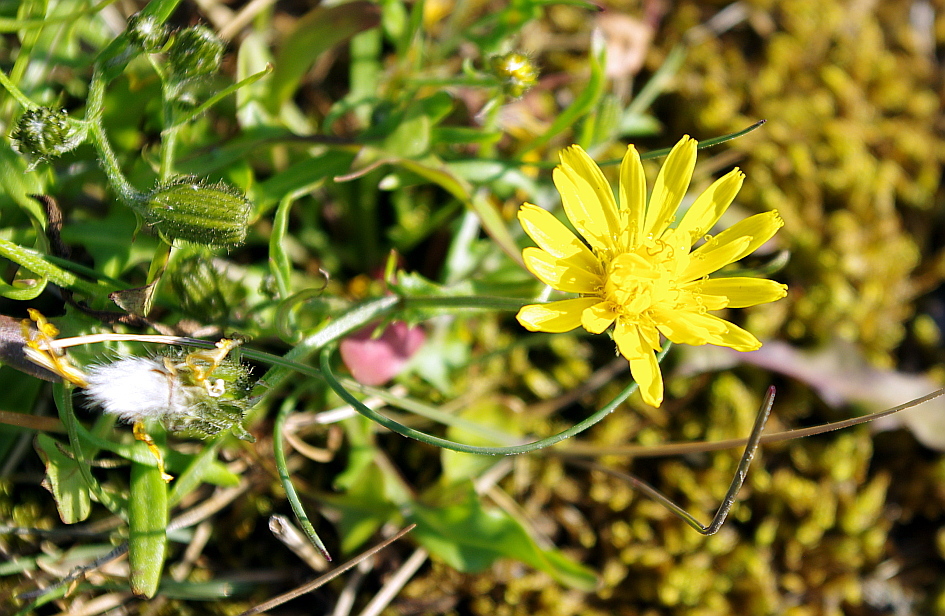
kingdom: Plantae
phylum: Tracheophyta
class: Magnoliopsida
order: Asterales
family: Asteraceae
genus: Crepis
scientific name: Crepis nigrescens
